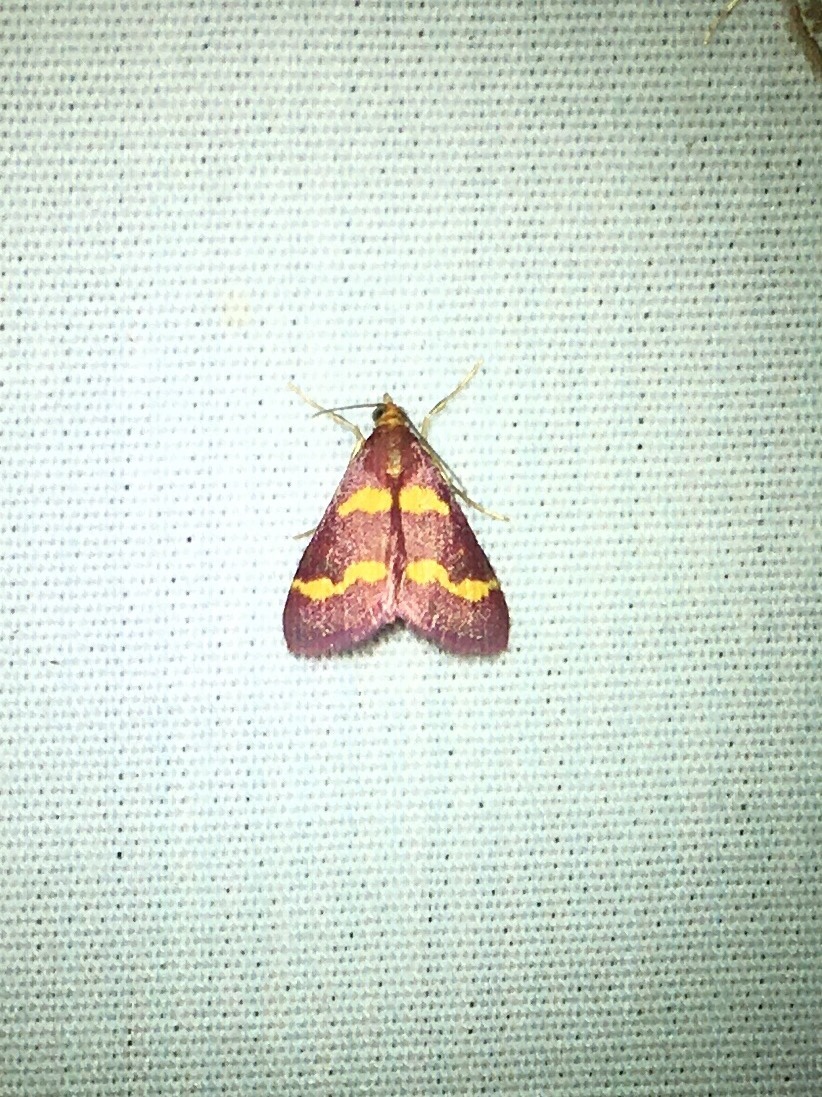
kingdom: Animalia
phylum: Arthropoda
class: Insecta
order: Lepidoptera
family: Crambidae
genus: Pyrausta
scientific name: Pyrausta tyralis
